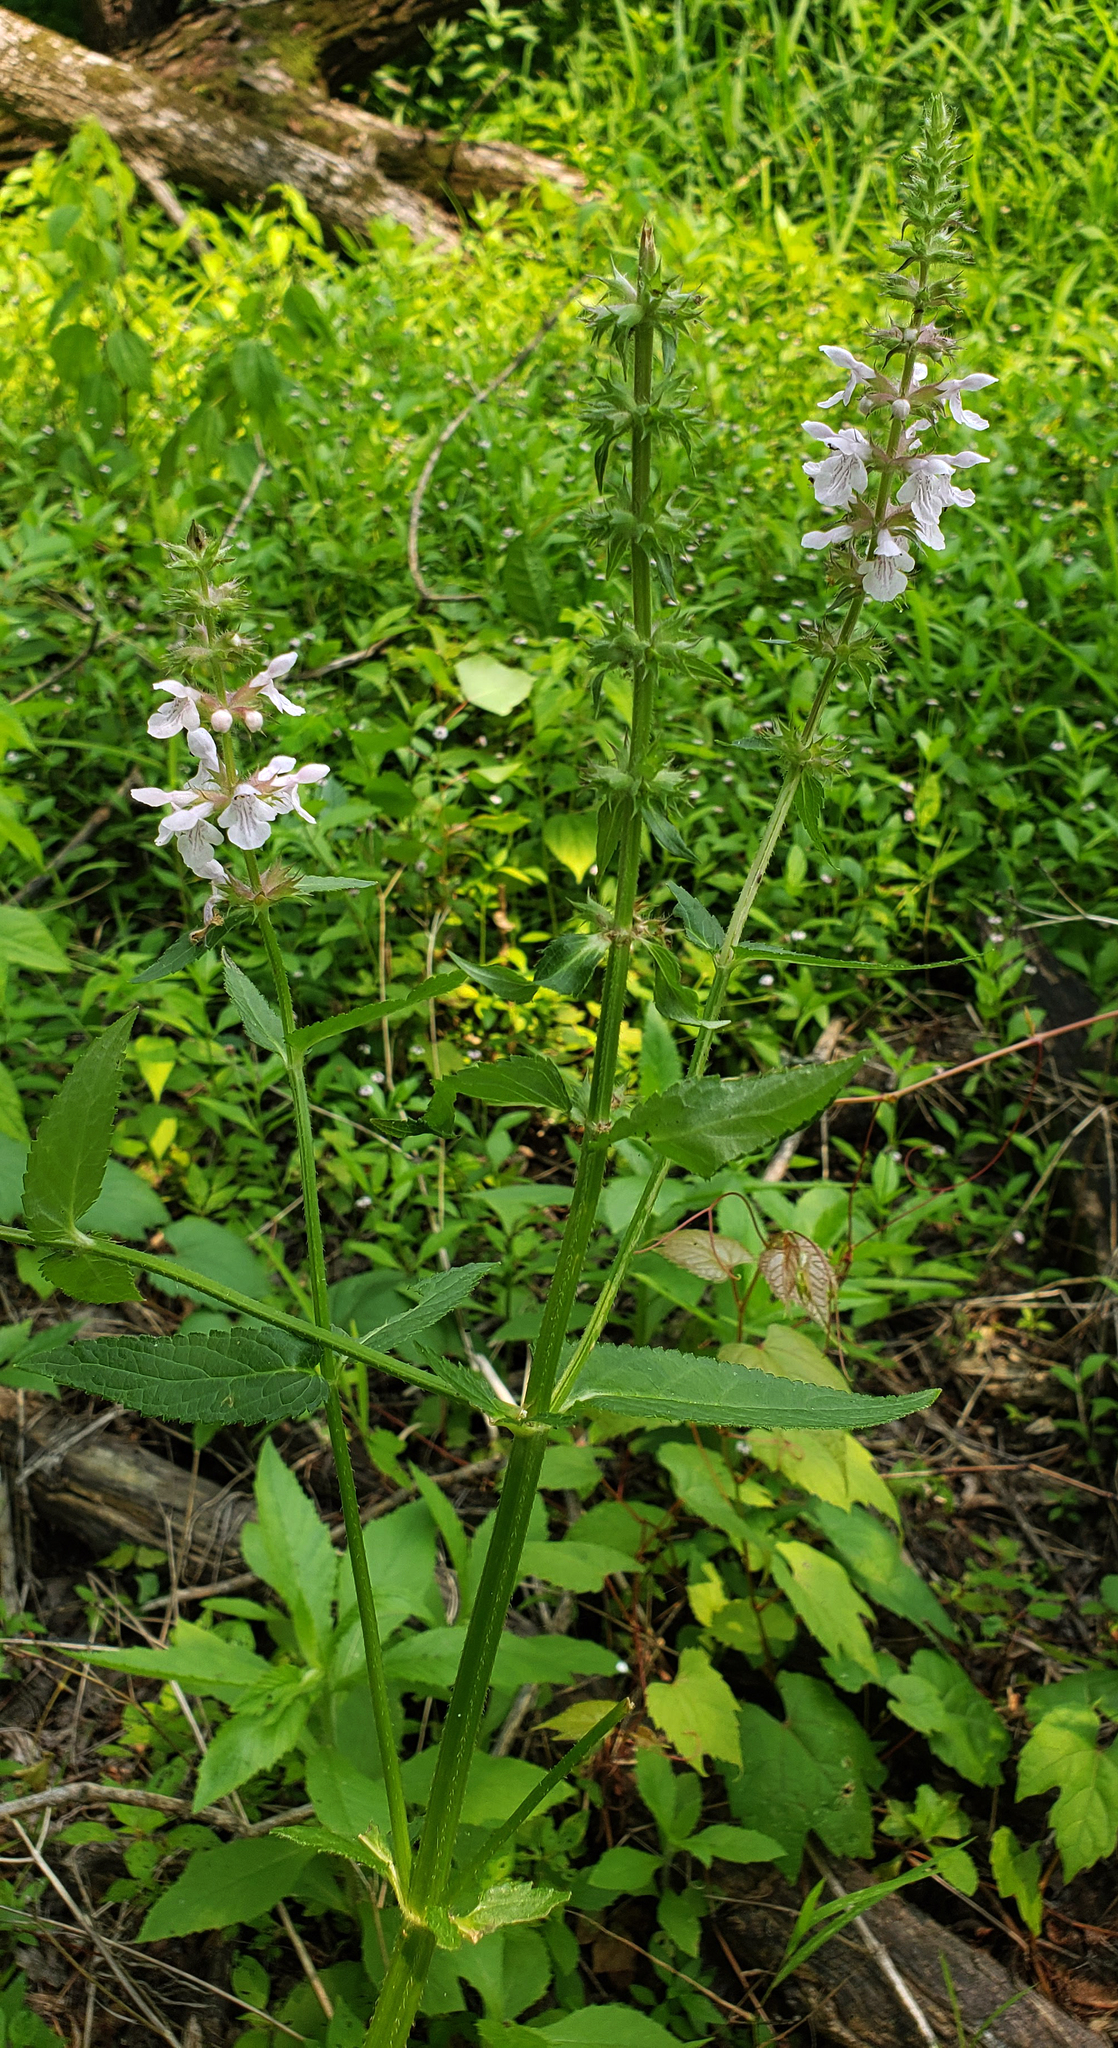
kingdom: Plantae
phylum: Tracheophyta
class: Magnoliopsida
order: Lamiales
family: Lamiaceae
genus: Stachys
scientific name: Stachys hispida
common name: Hispid hedge-nettle
